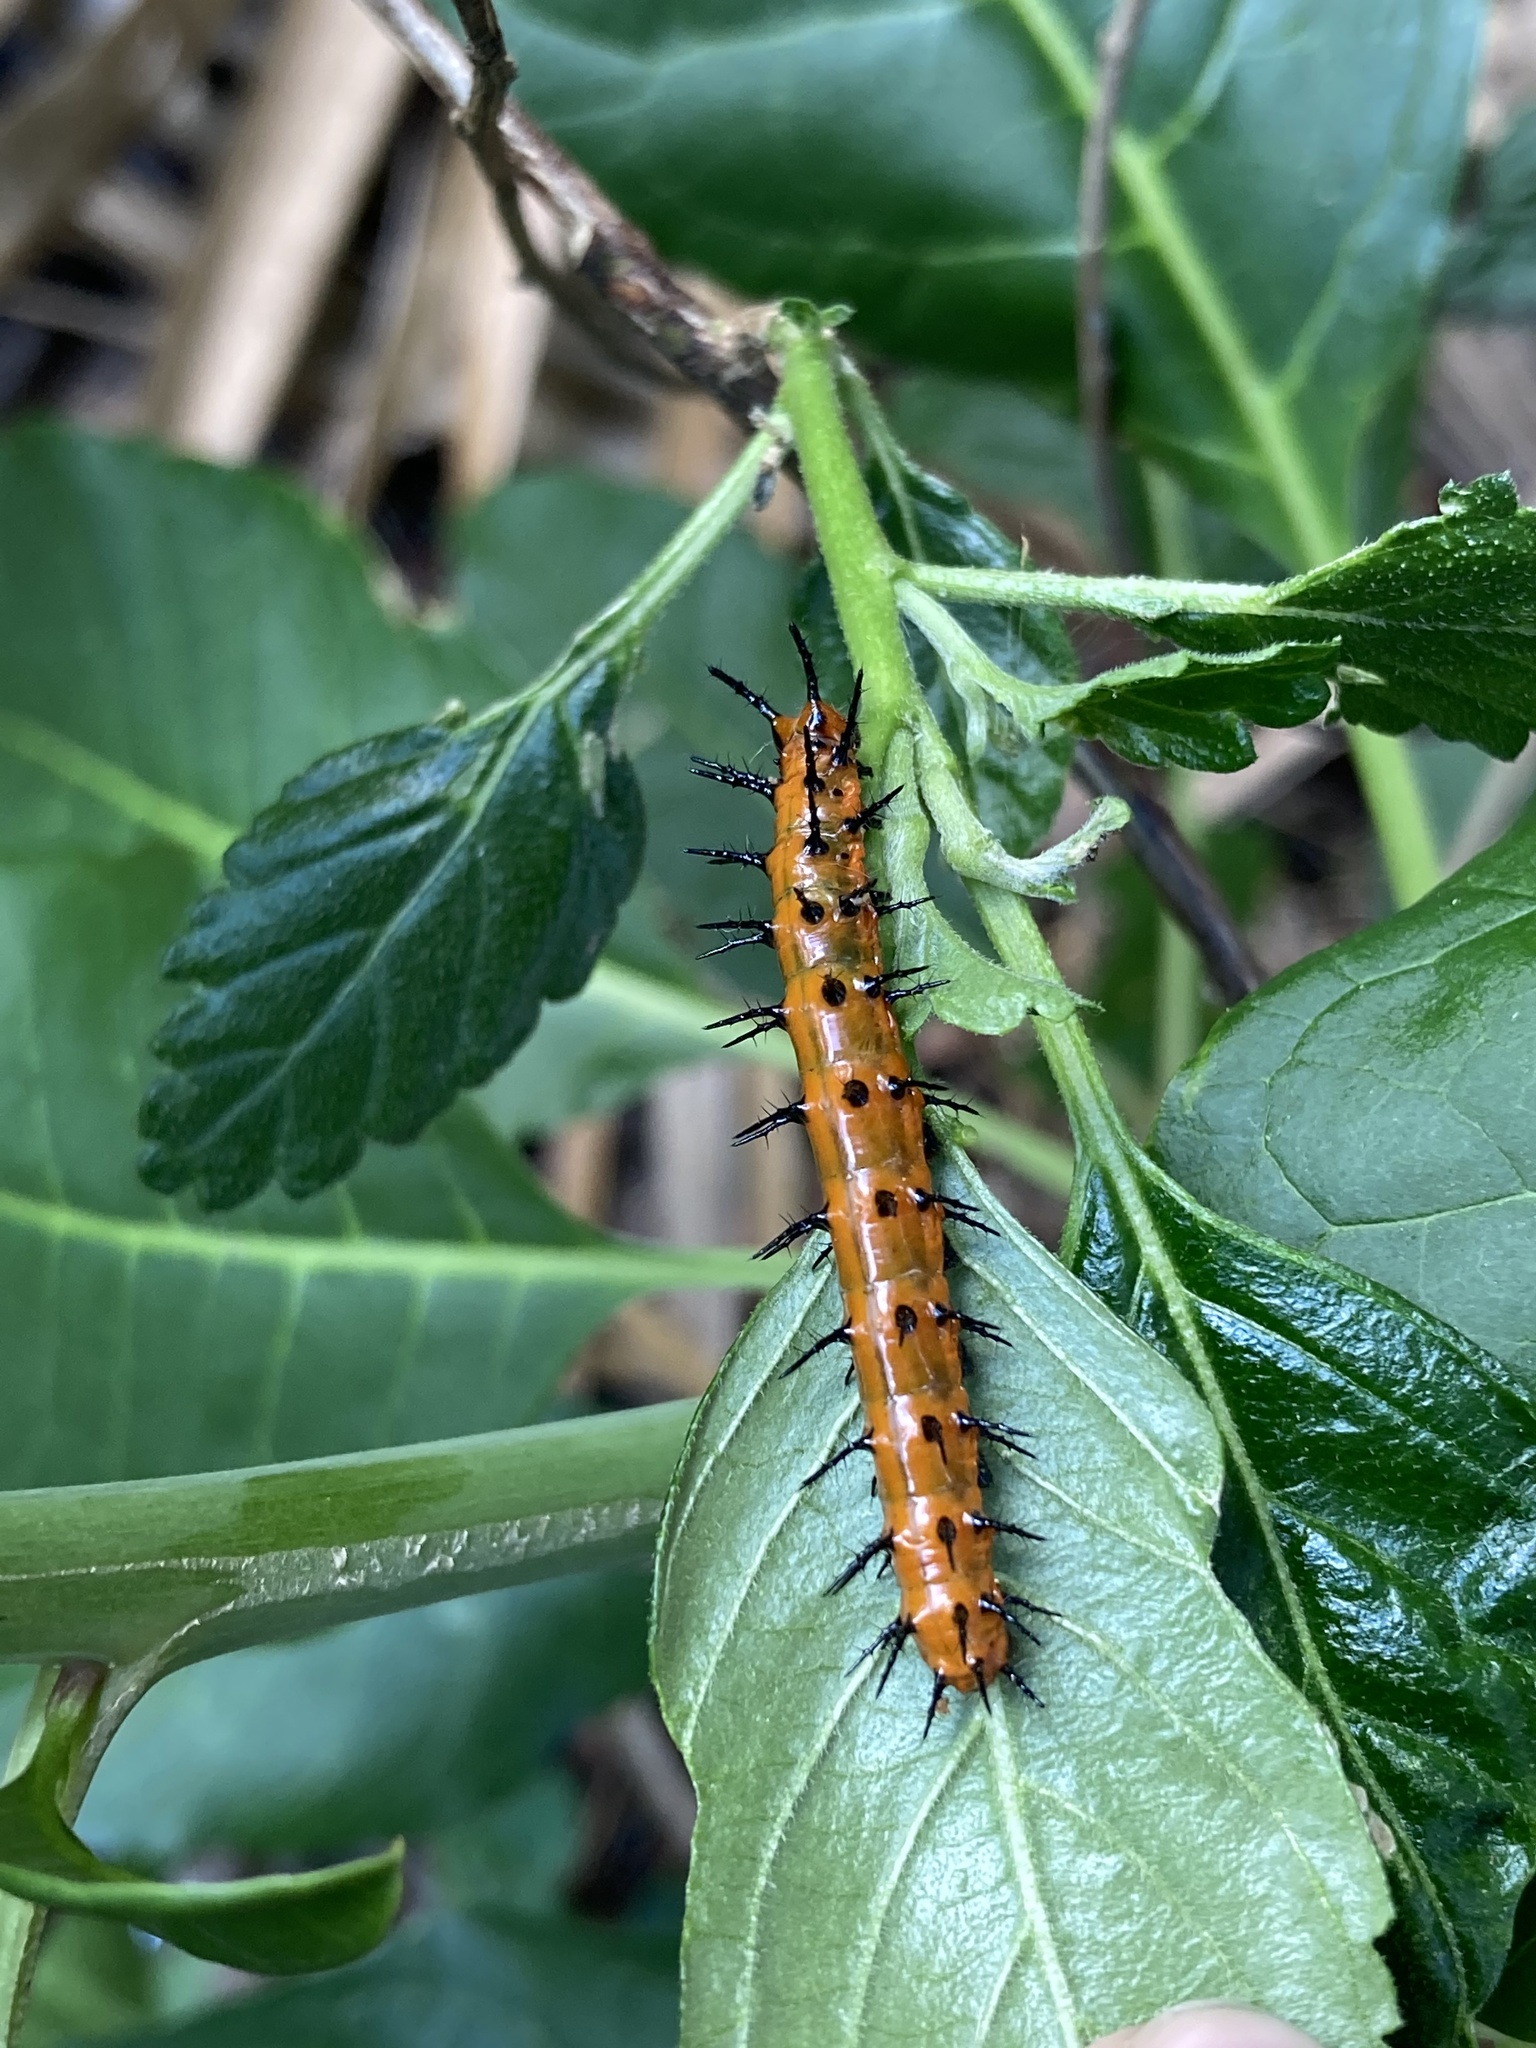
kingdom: Animalia
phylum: Arthropoda
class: Insecta
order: Lepidoptera
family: Nymphalidae
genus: Dione
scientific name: Dione vanillae
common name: Gulf fritillary
